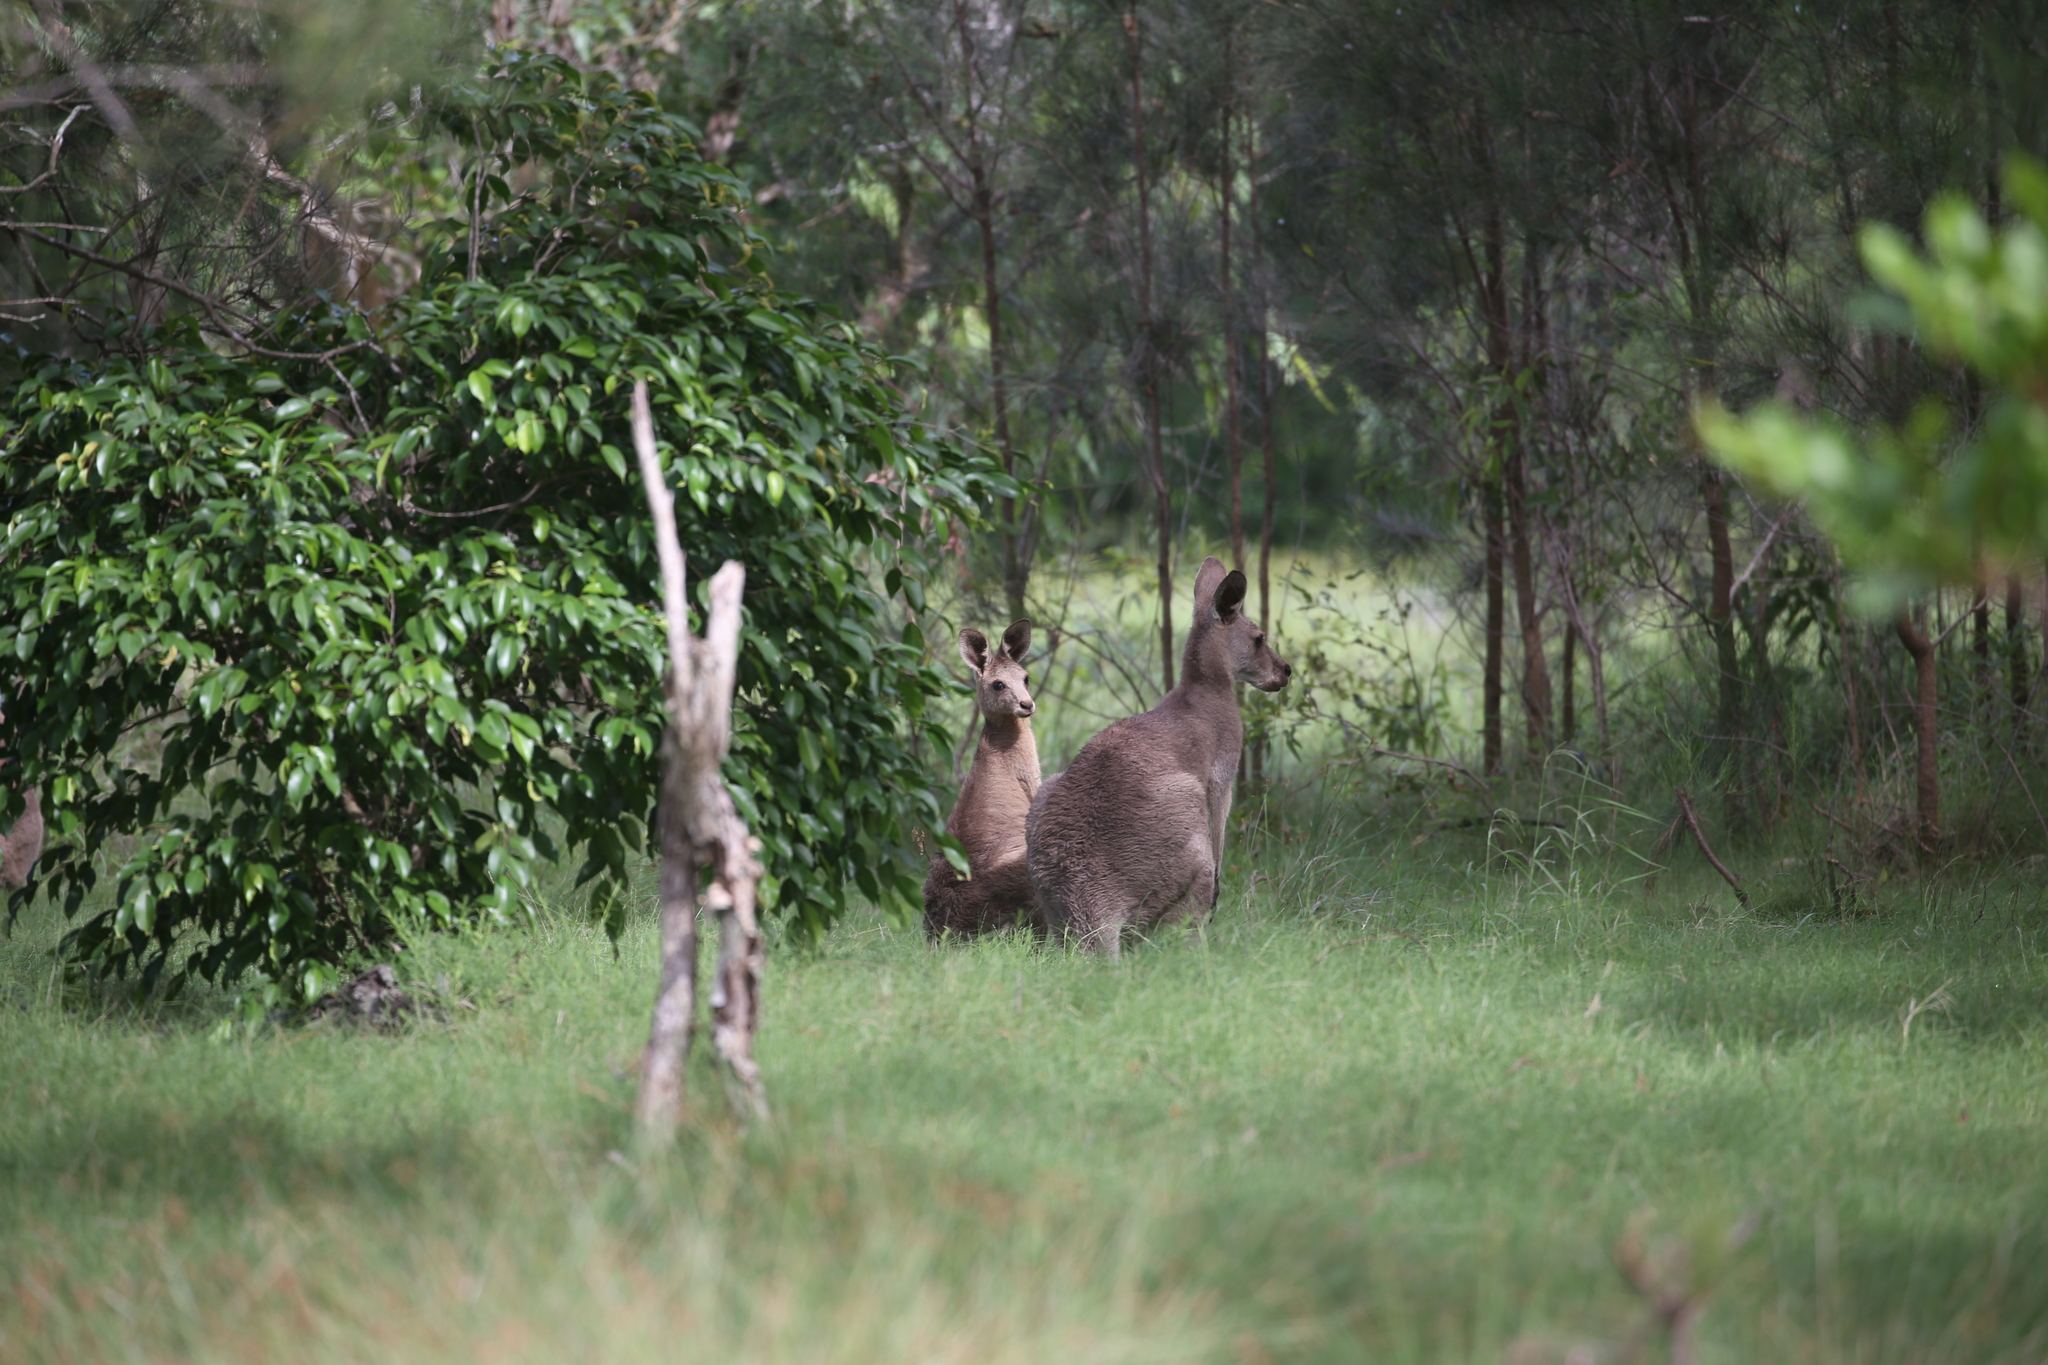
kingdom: Animalia
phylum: Chordata
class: Mammalia
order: Diprotodontia
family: Macropodidae
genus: Macropus
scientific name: Macropus giganteus
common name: Eastern grey kangaroo
